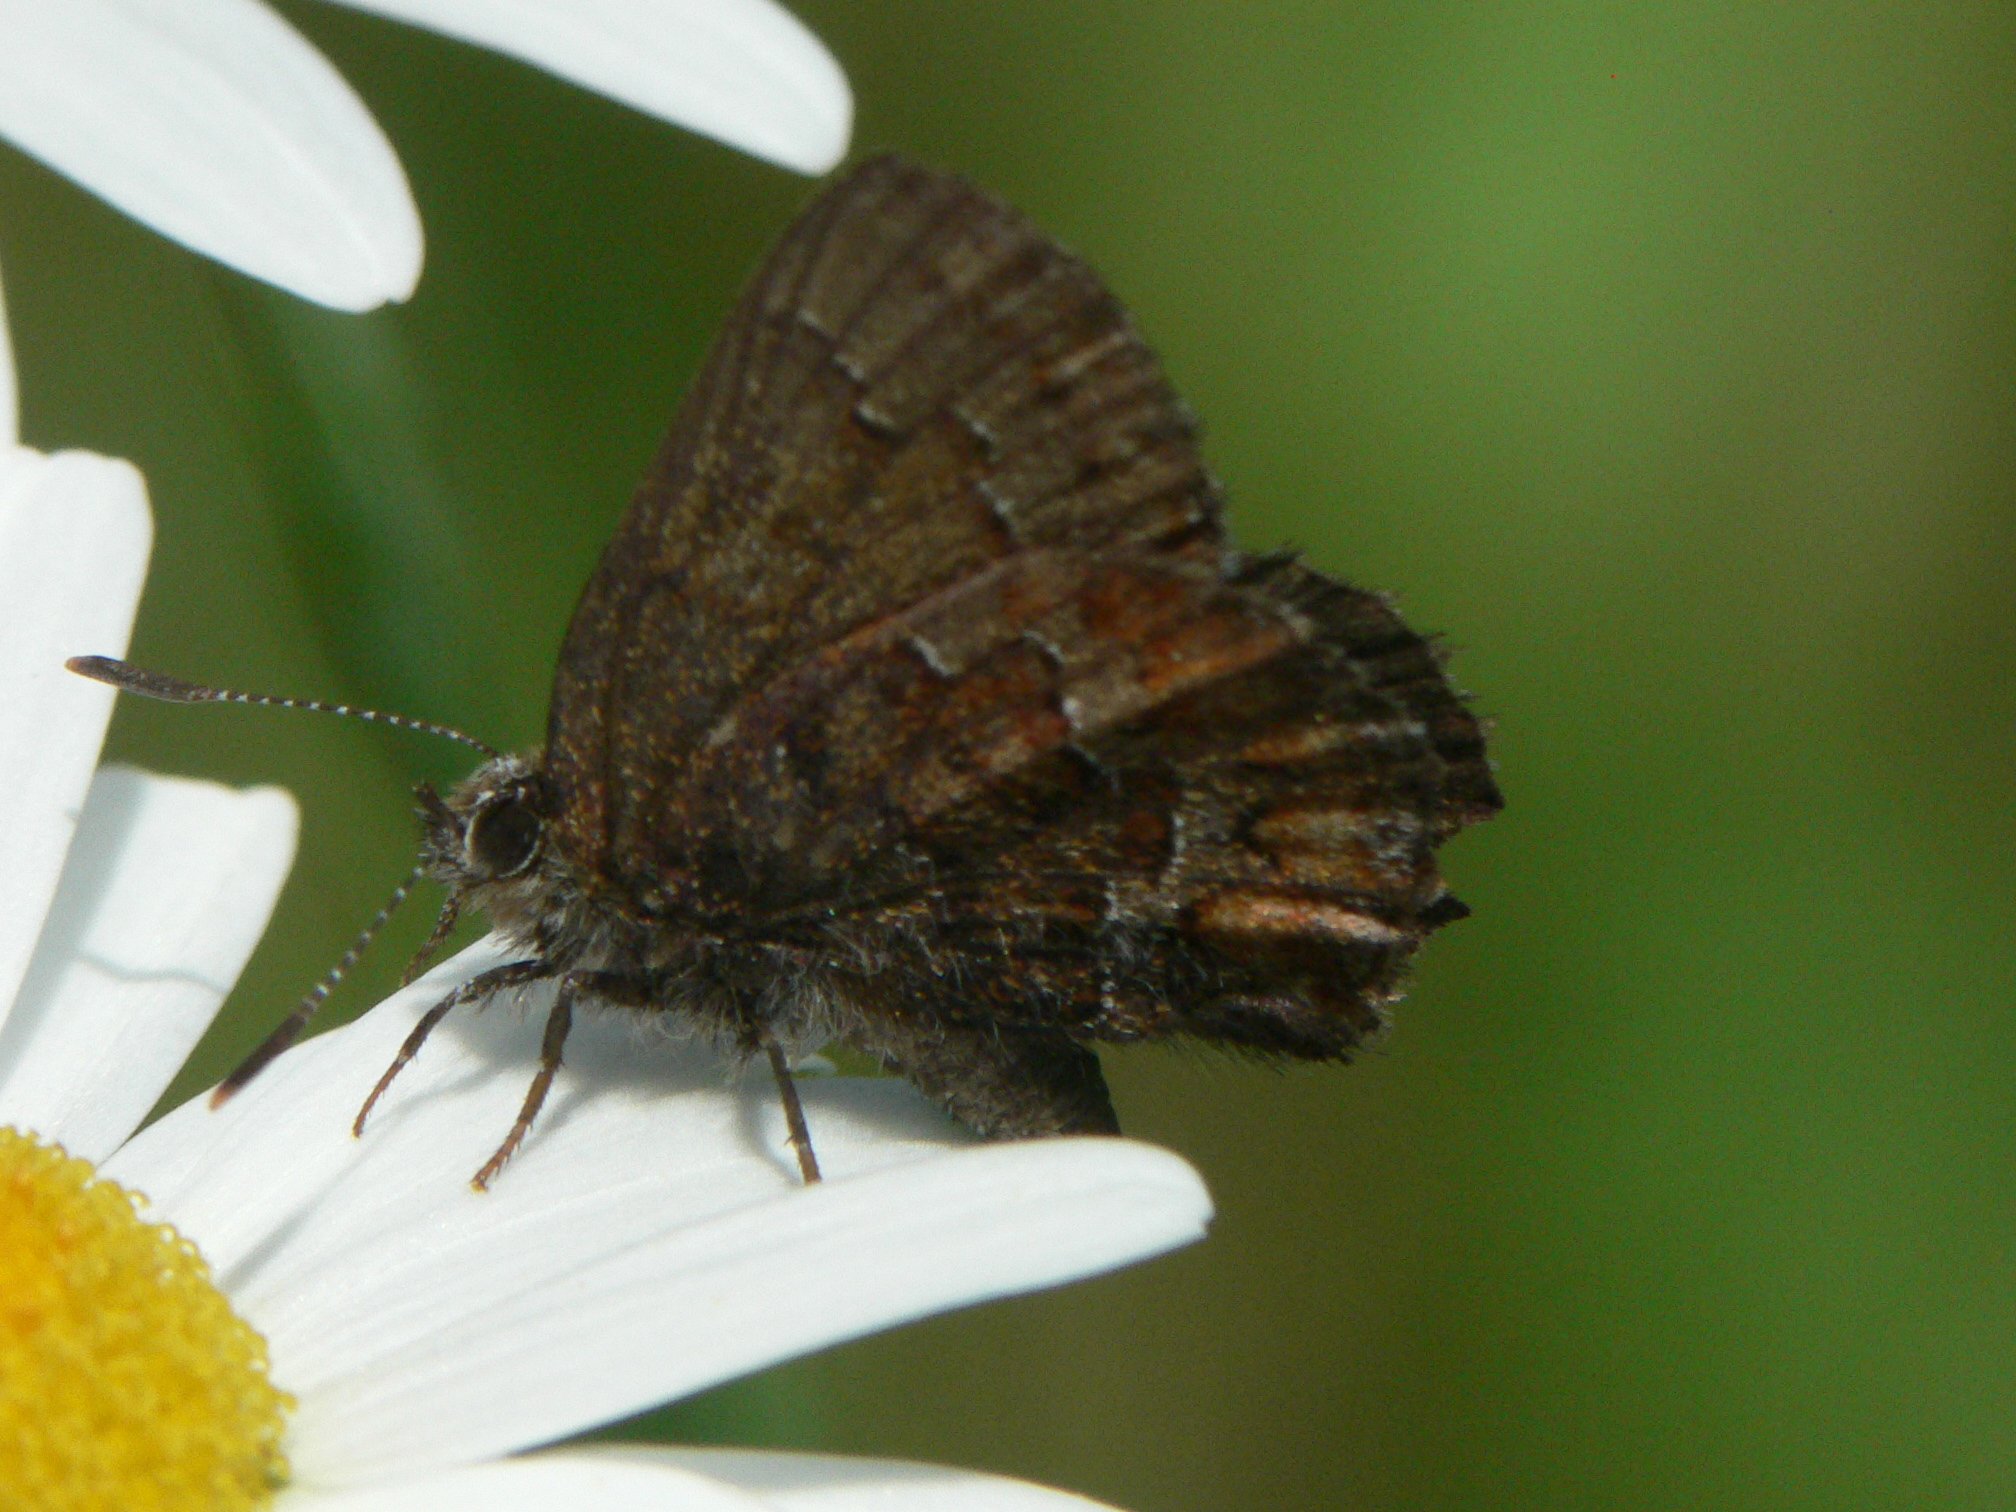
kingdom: Animalia
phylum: Arthropoda
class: Insecta
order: Lepidoptera
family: Lycaenidae
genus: Incisalia
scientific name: Incisalia niphon
